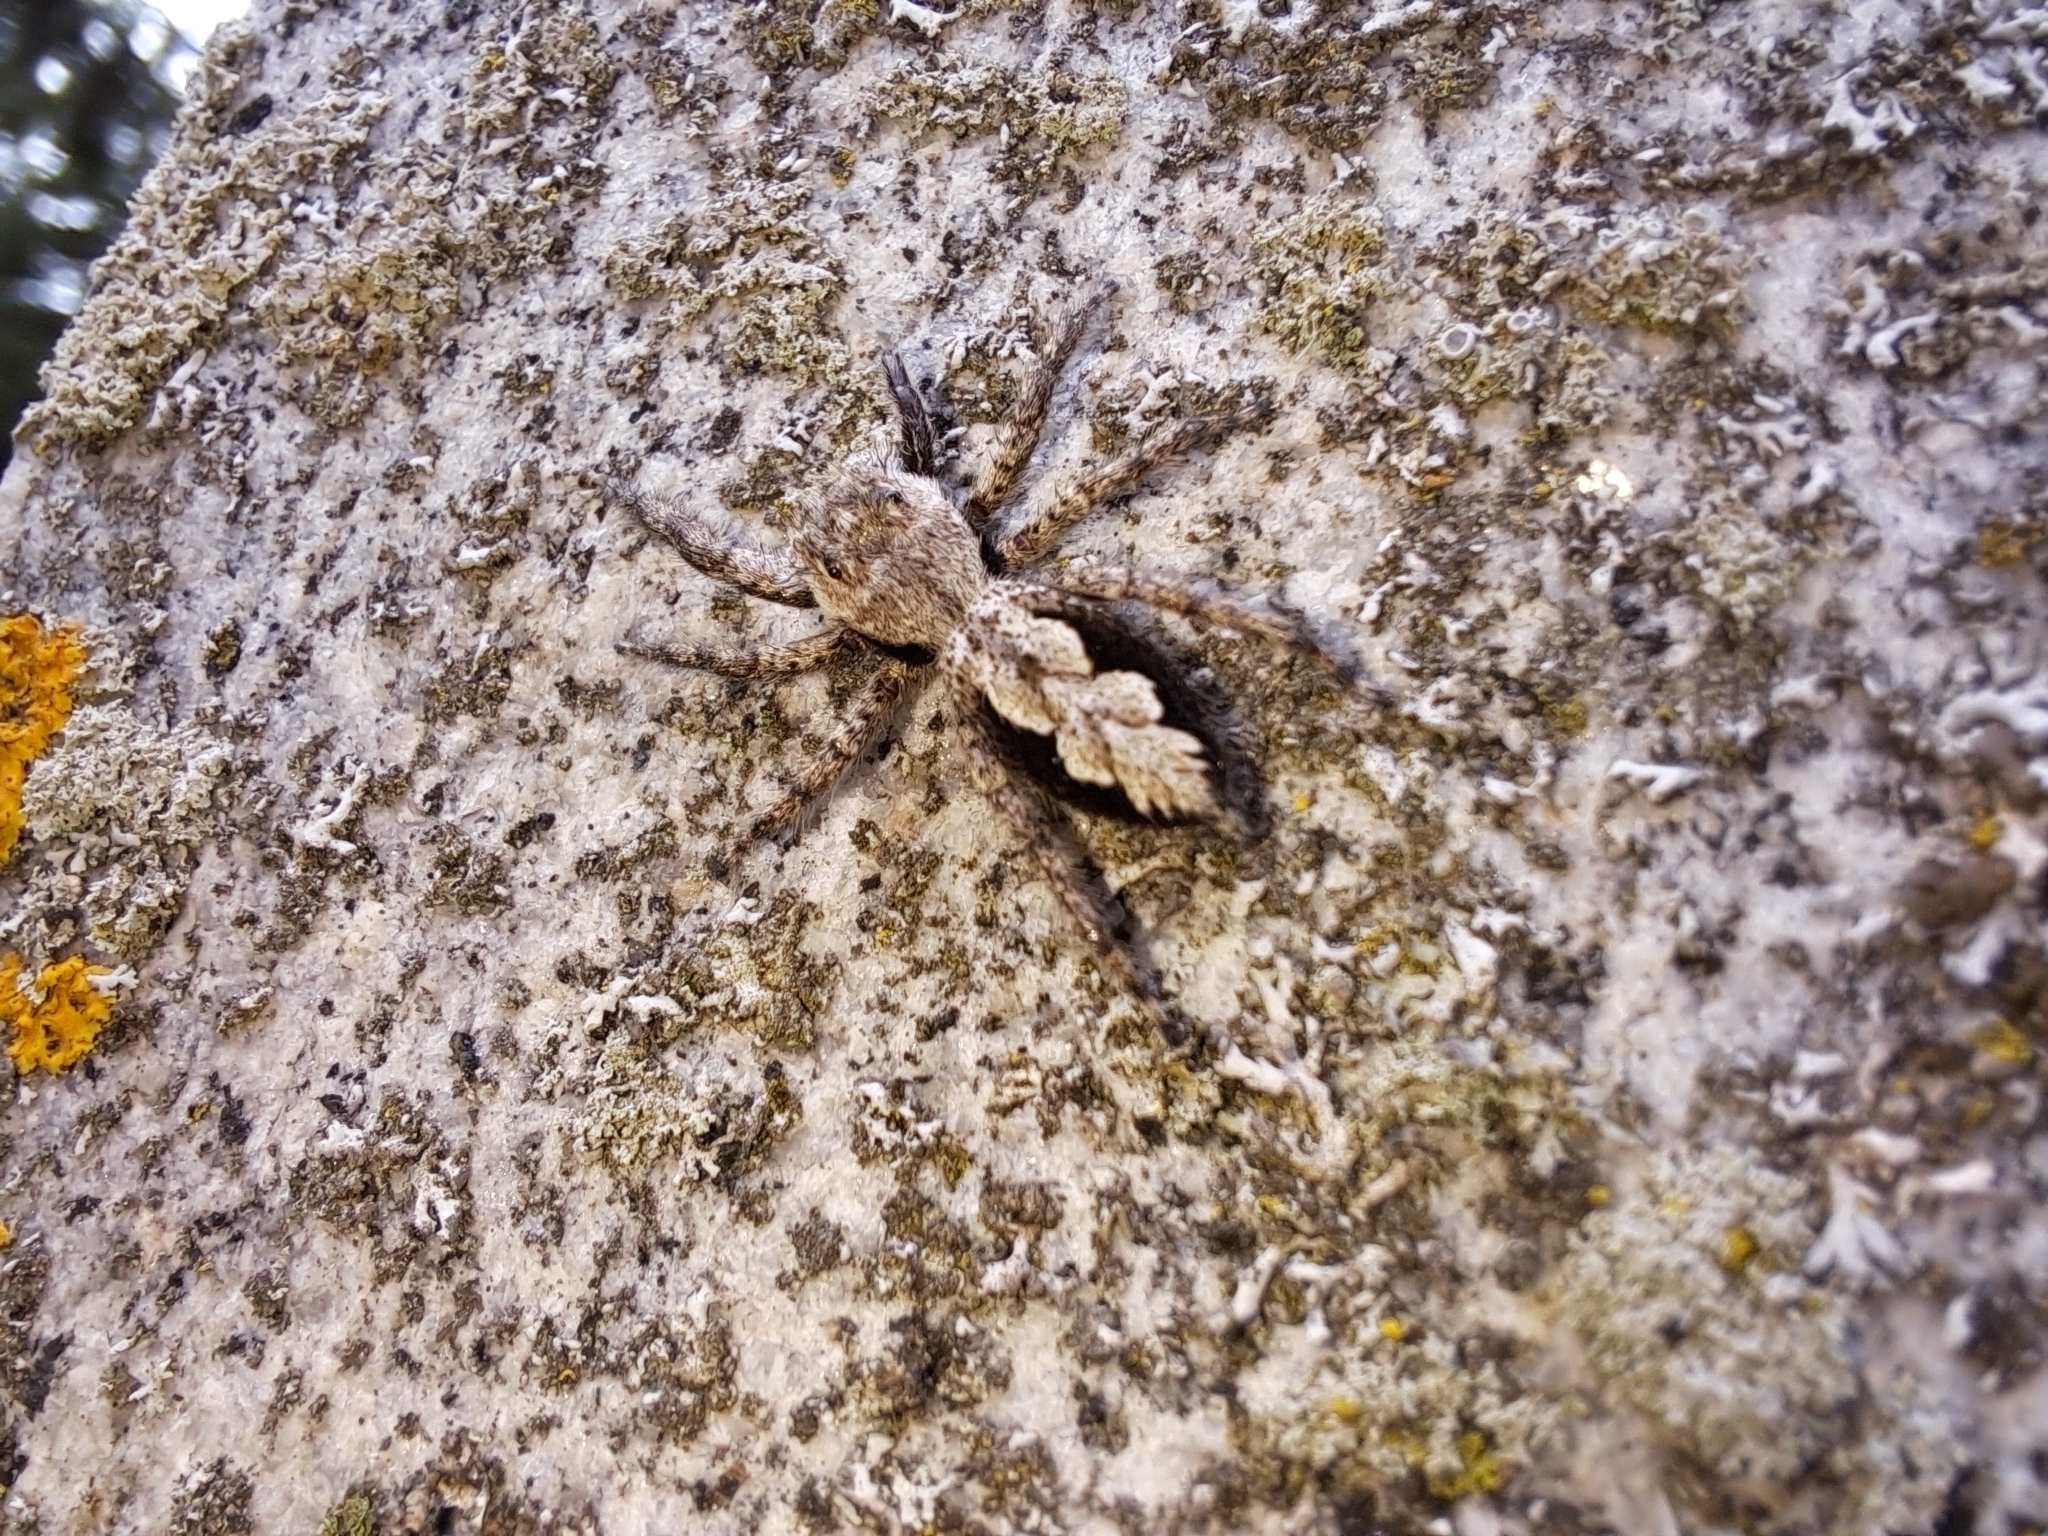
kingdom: Animalia
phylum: Arthropoda
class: Arachnida
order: Araneae
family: Salticidae
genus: Platycryptus
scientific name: Platycryptus undatus
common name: Tan jumping spider
